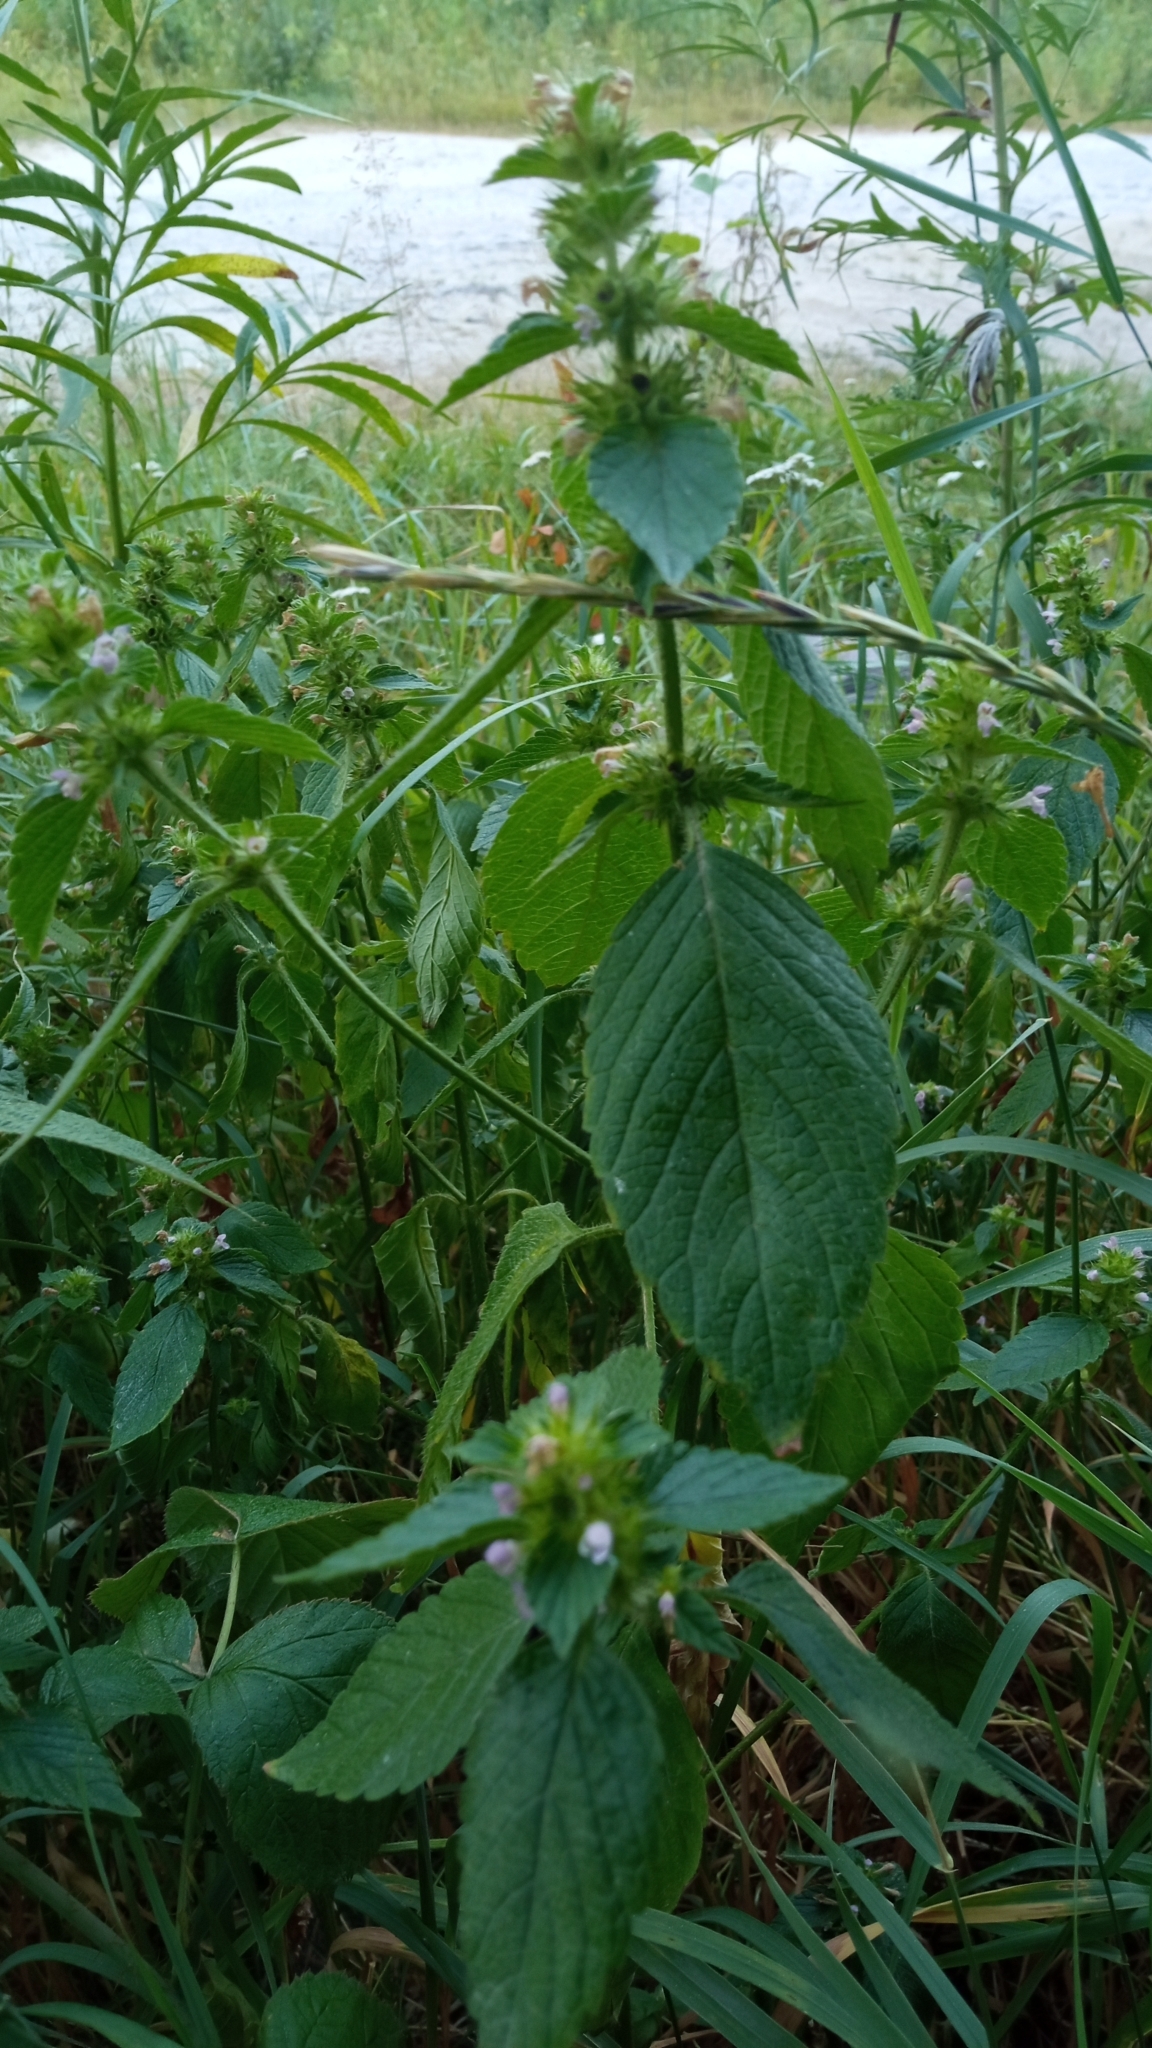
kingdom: Plantae
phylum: Tracheophyta
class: Magnoliopsida
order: Lamiales
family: Lamiaceae
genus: Galeopsis
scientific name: Galeopsis bifida
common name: Bifid hemp-nettle
